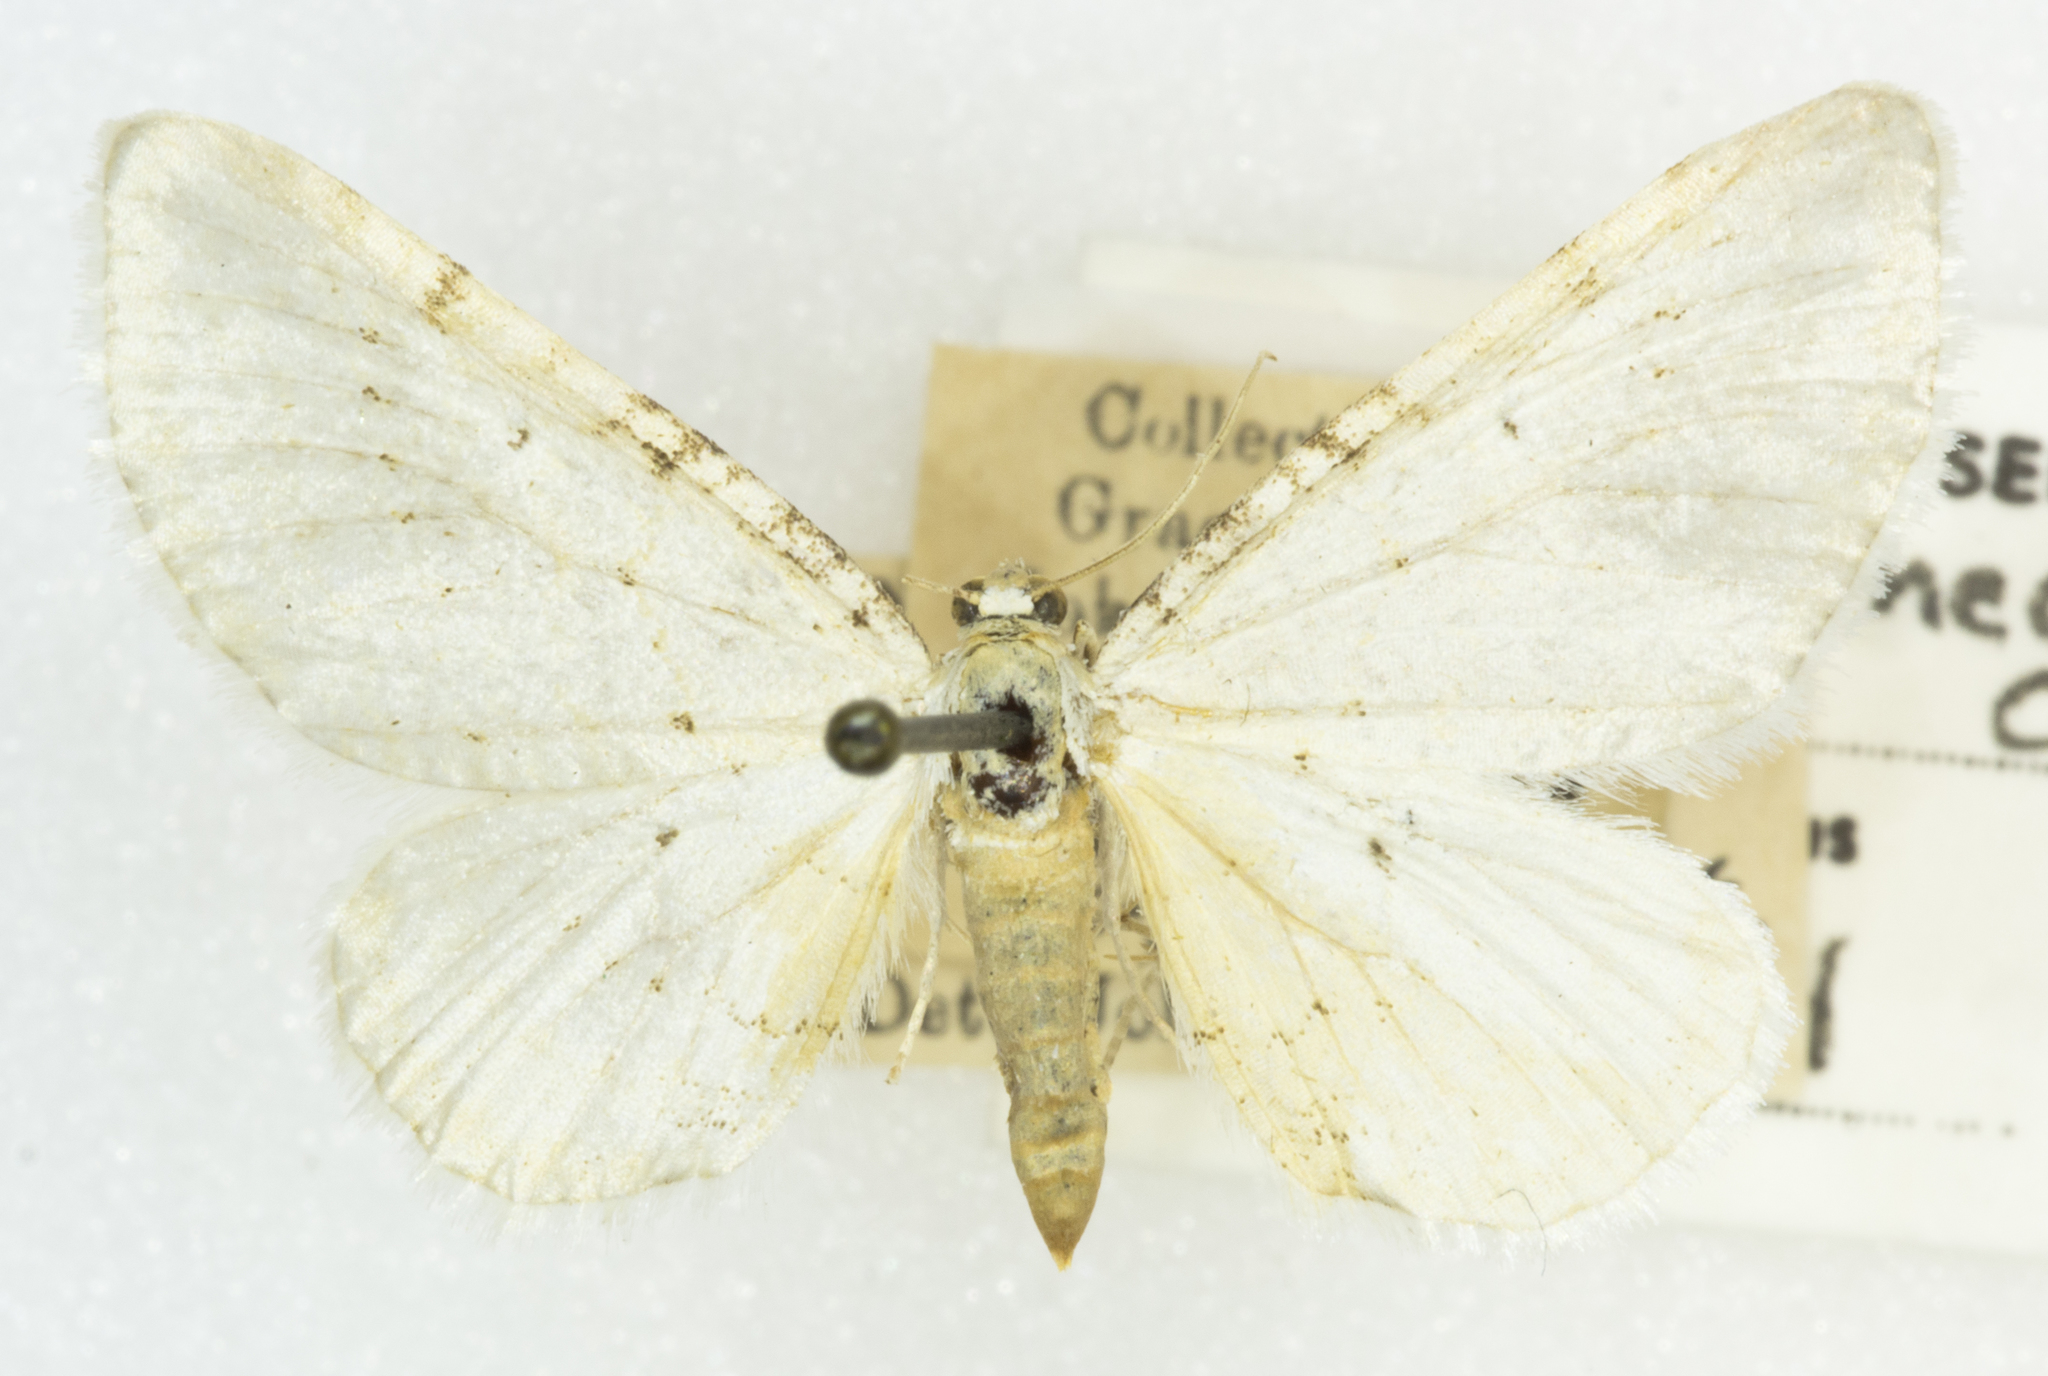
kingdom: Animalia
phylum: Arthropoda
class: Insecta
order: Lepidoptera
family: Geometridae
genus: Eupithecia
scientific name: Eupithecia cretaceata
